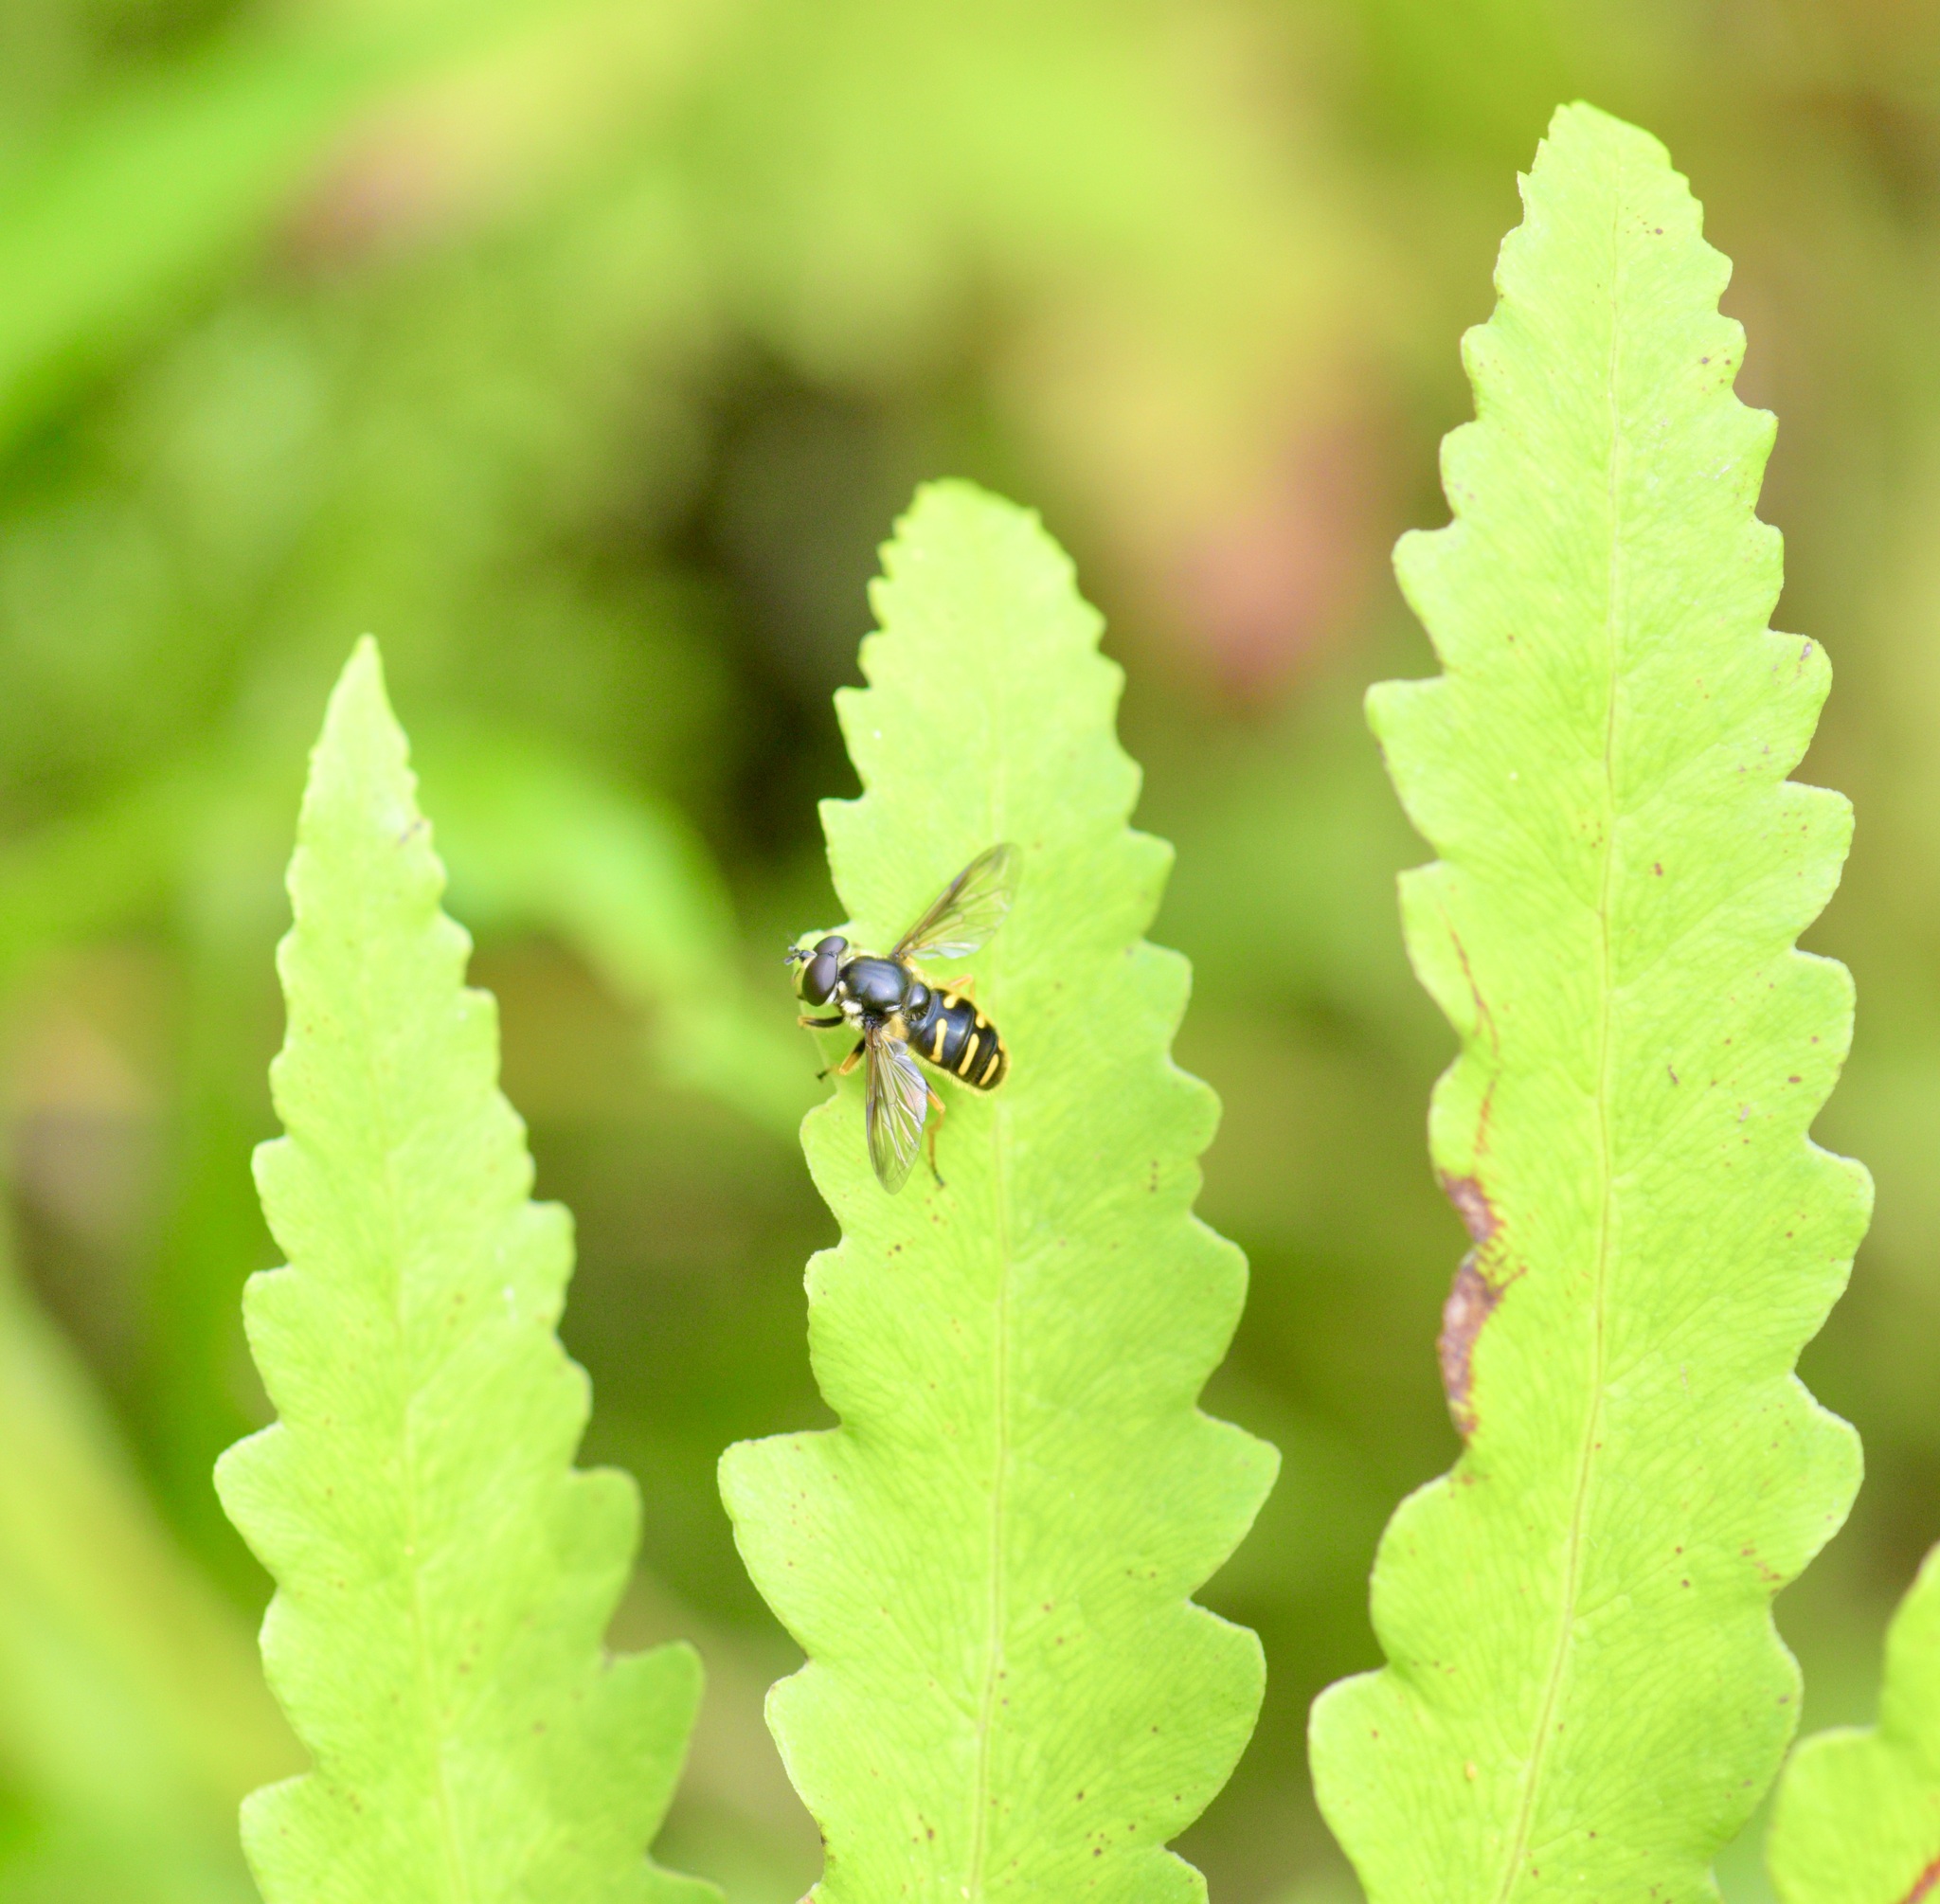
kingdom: Animalia
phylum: Arthropoda
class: Insecta
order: Diptera
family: Syrphidae
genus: Sericomyia
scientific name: Sericomyia chrysotoxoides
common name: Oblique-banded pond fly
